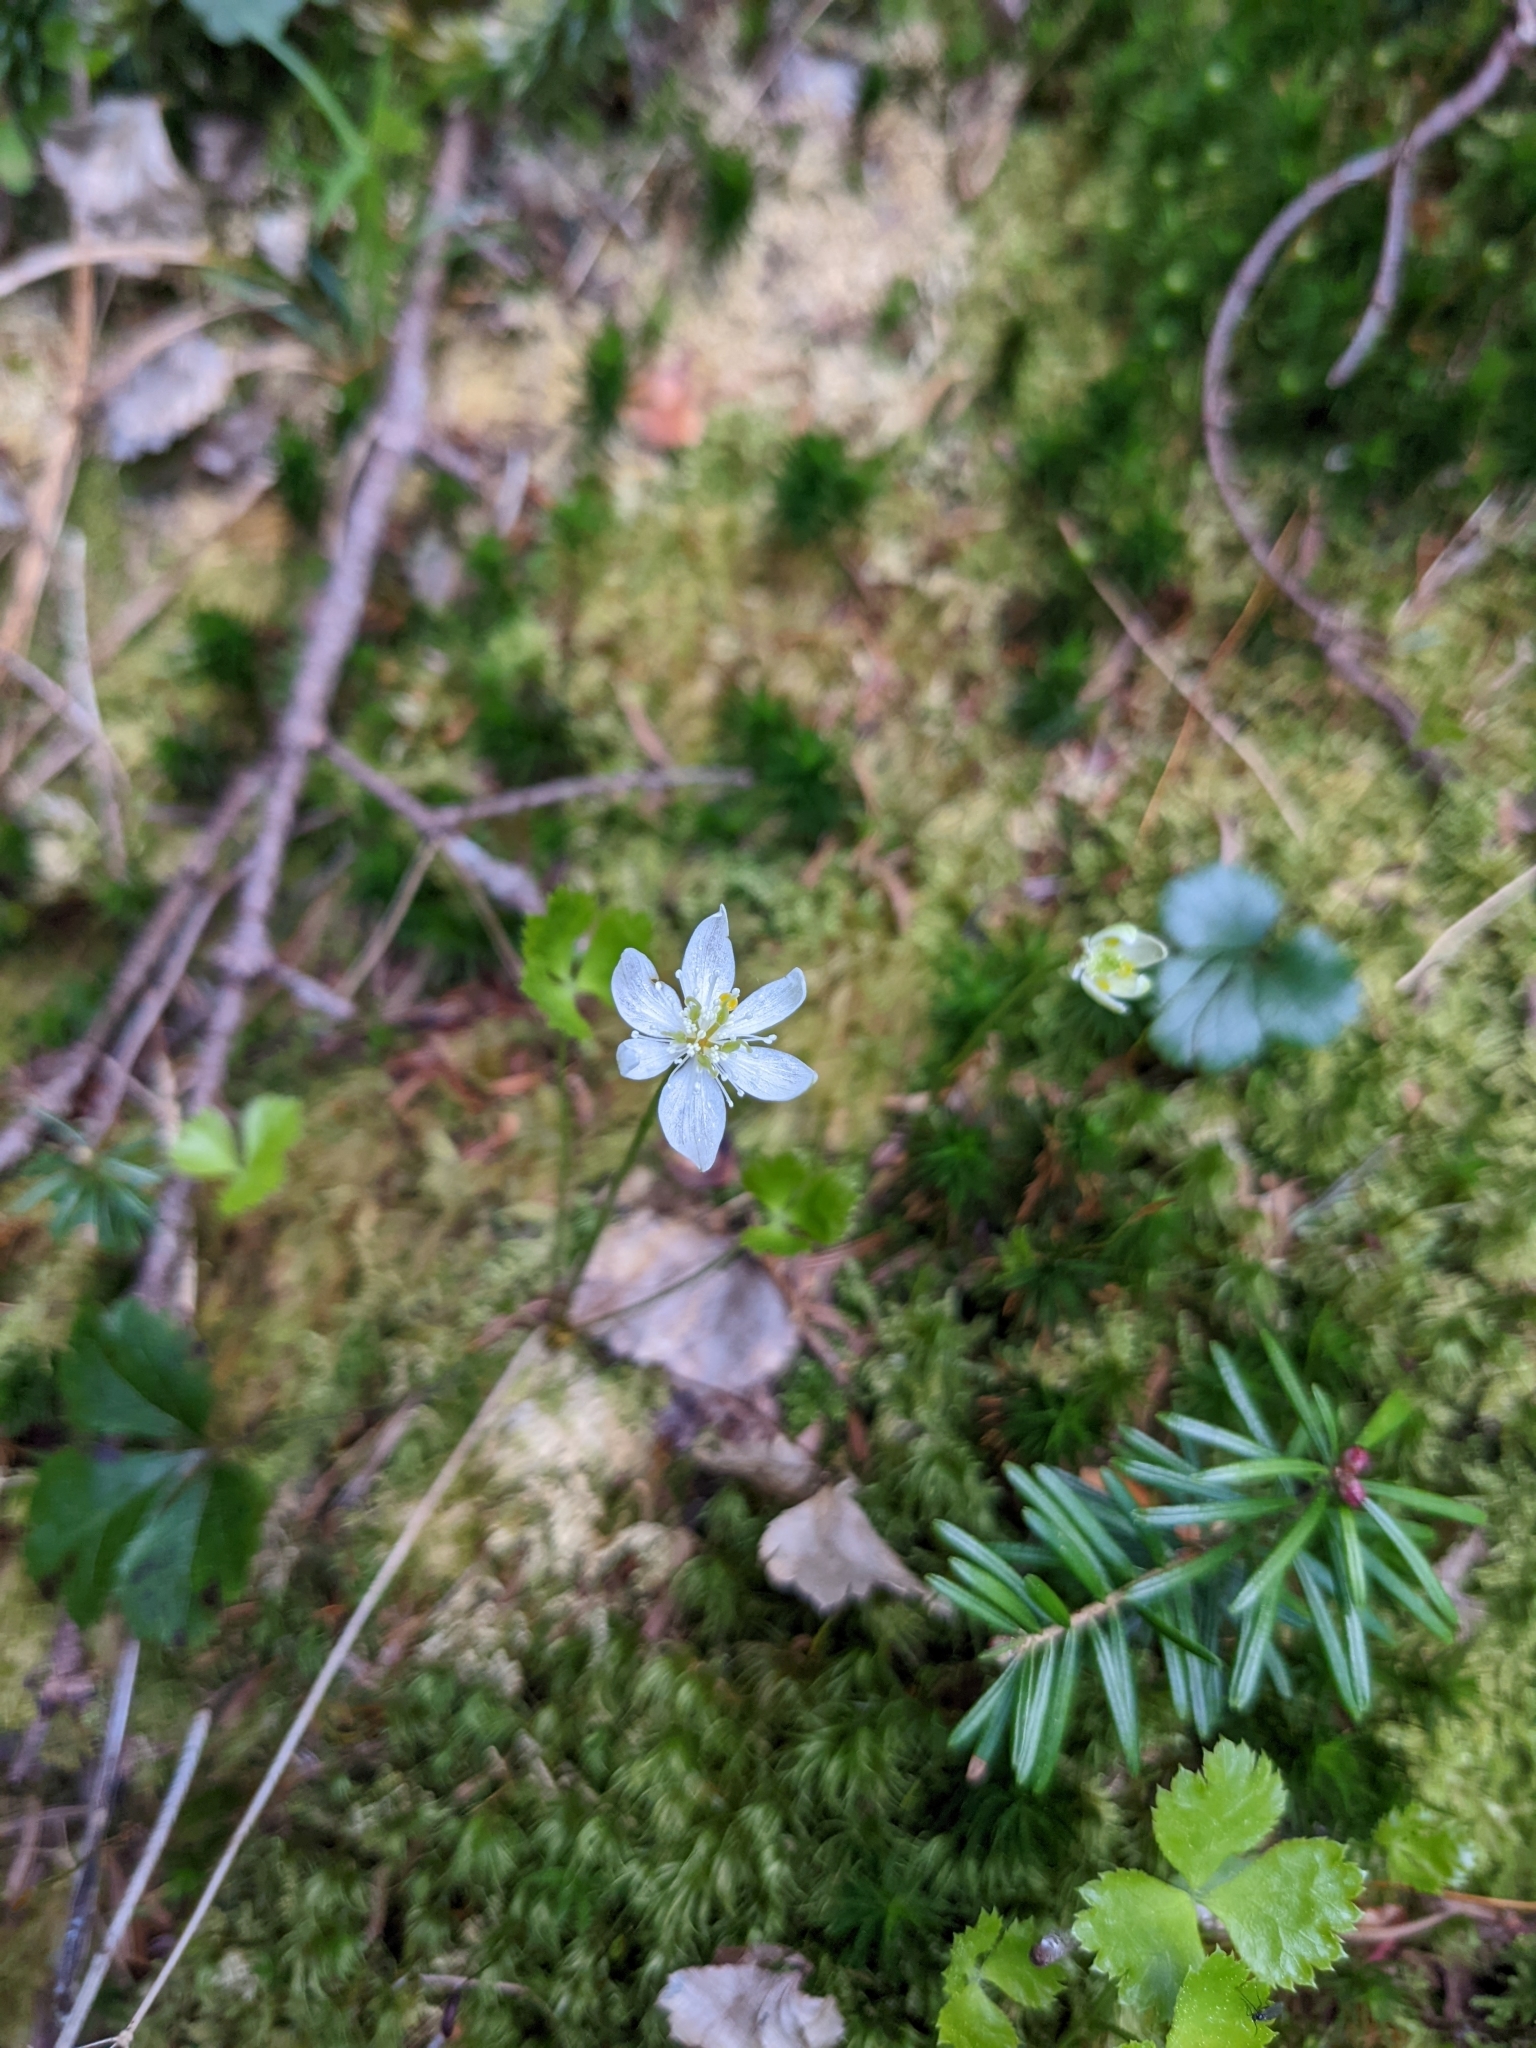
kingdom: Plantae
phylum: Tracheophyta
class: Magnoliopsida
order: Ranunculales
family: Ranunculaceae
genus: Coptis
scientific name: Coptis trifolia
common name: Canker-root
